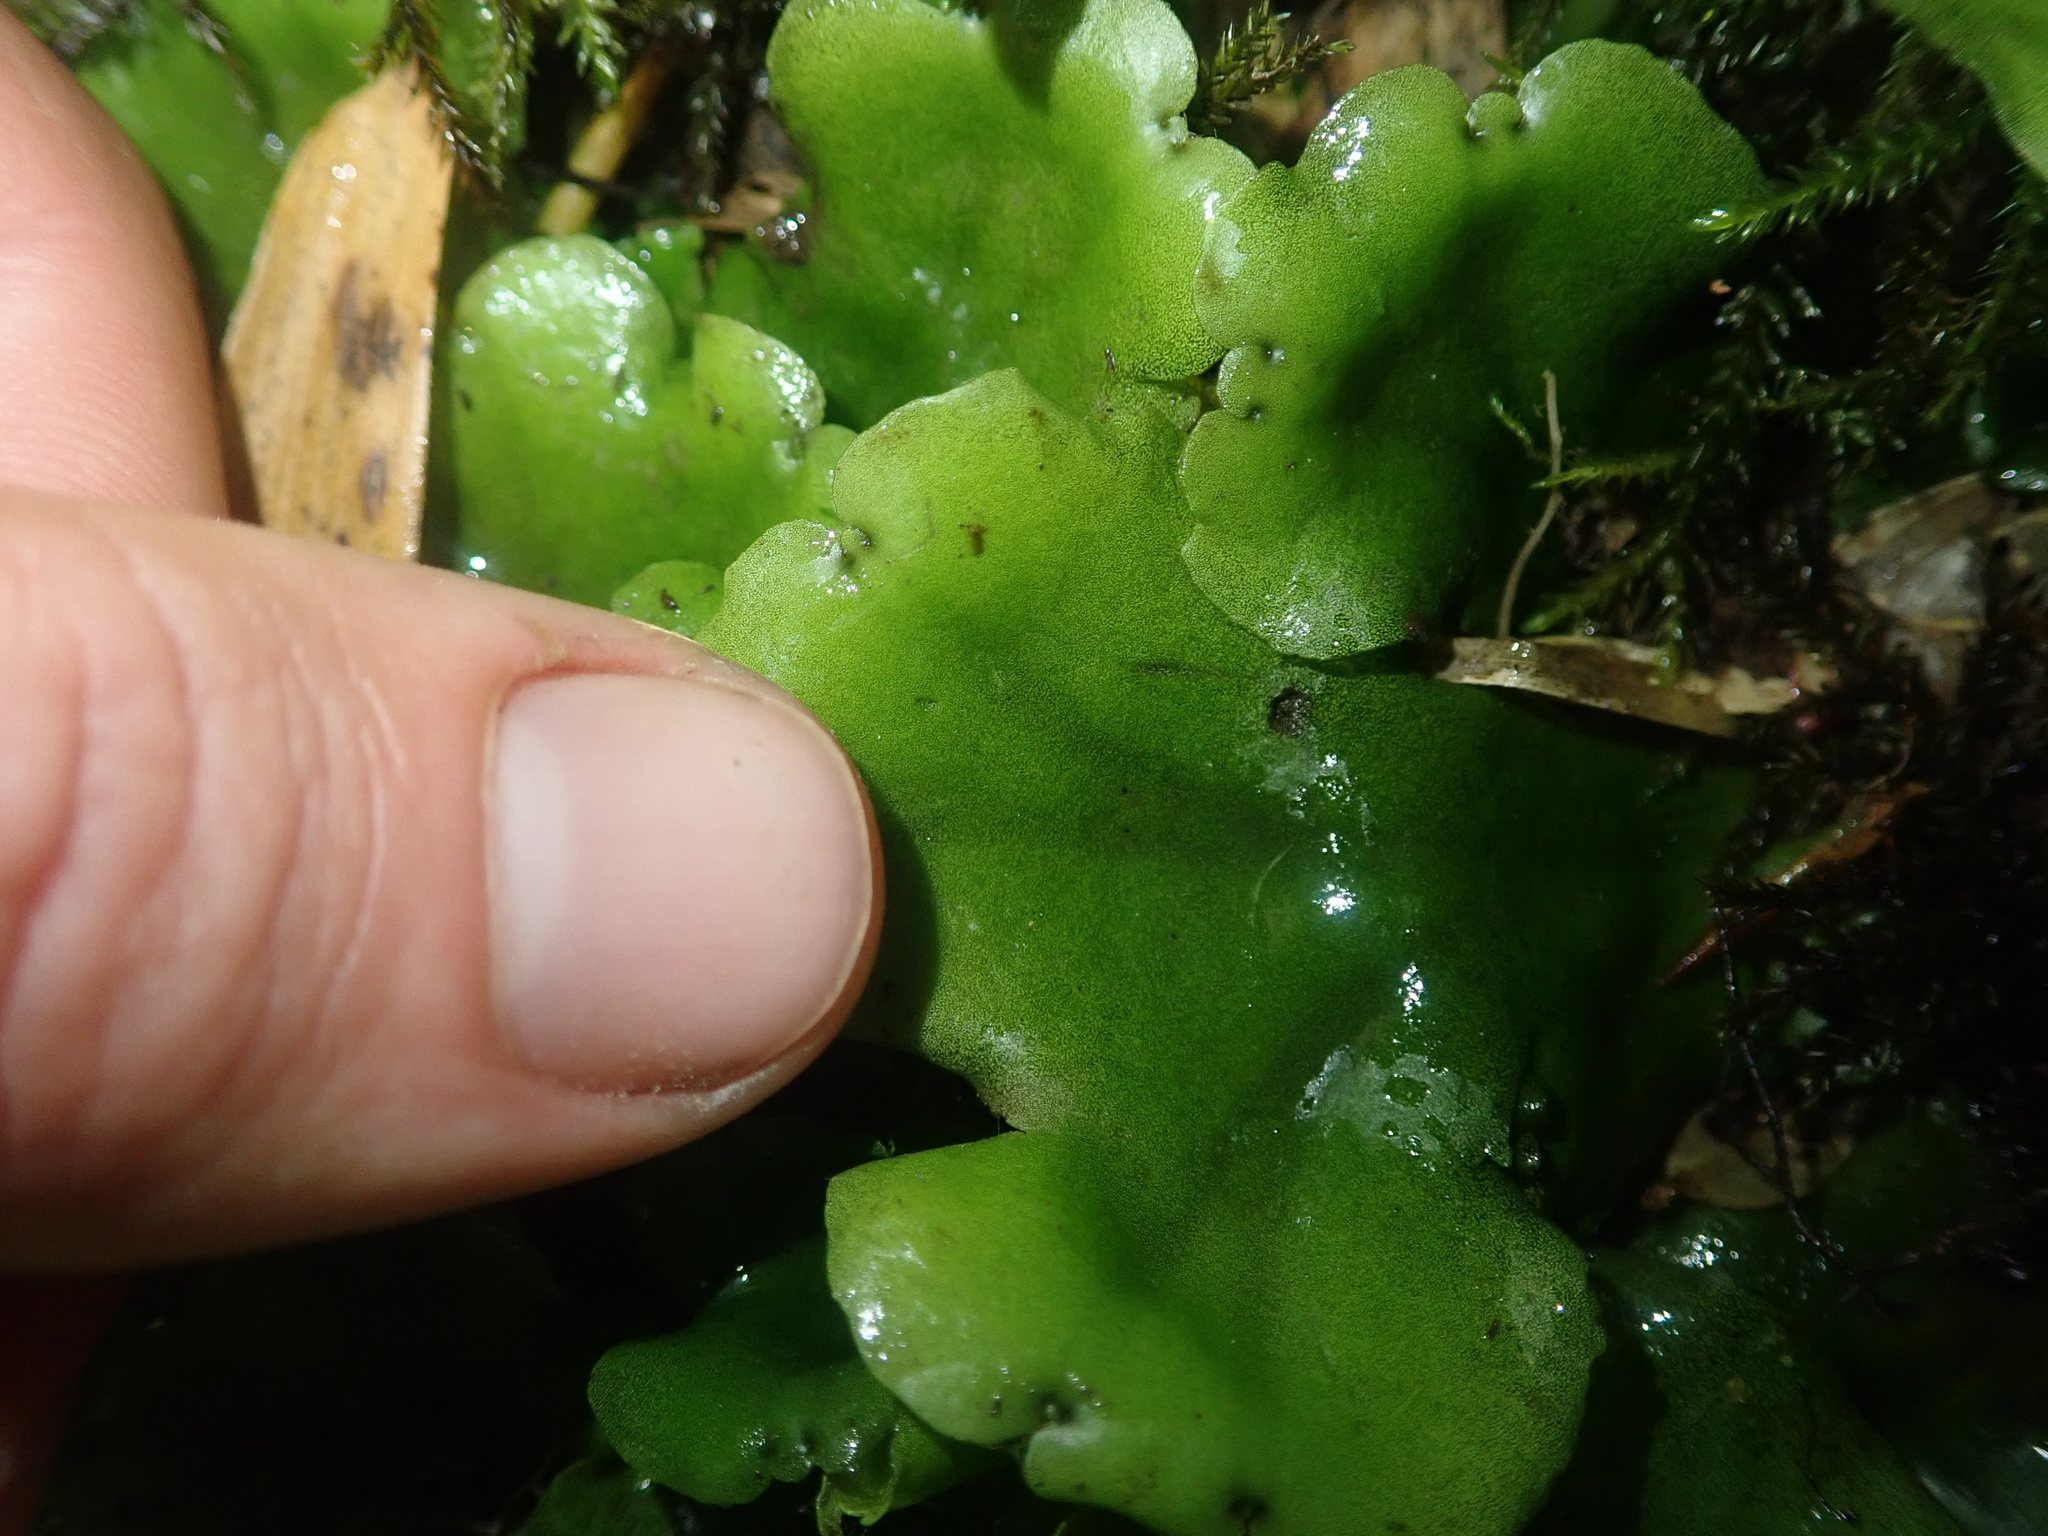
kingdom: Plantae
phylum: Marchantiophyta
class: Marchantiopsida
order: Marchantiales
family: Monocleaceae
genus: Monoclea
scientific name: Monoclea gottschei
